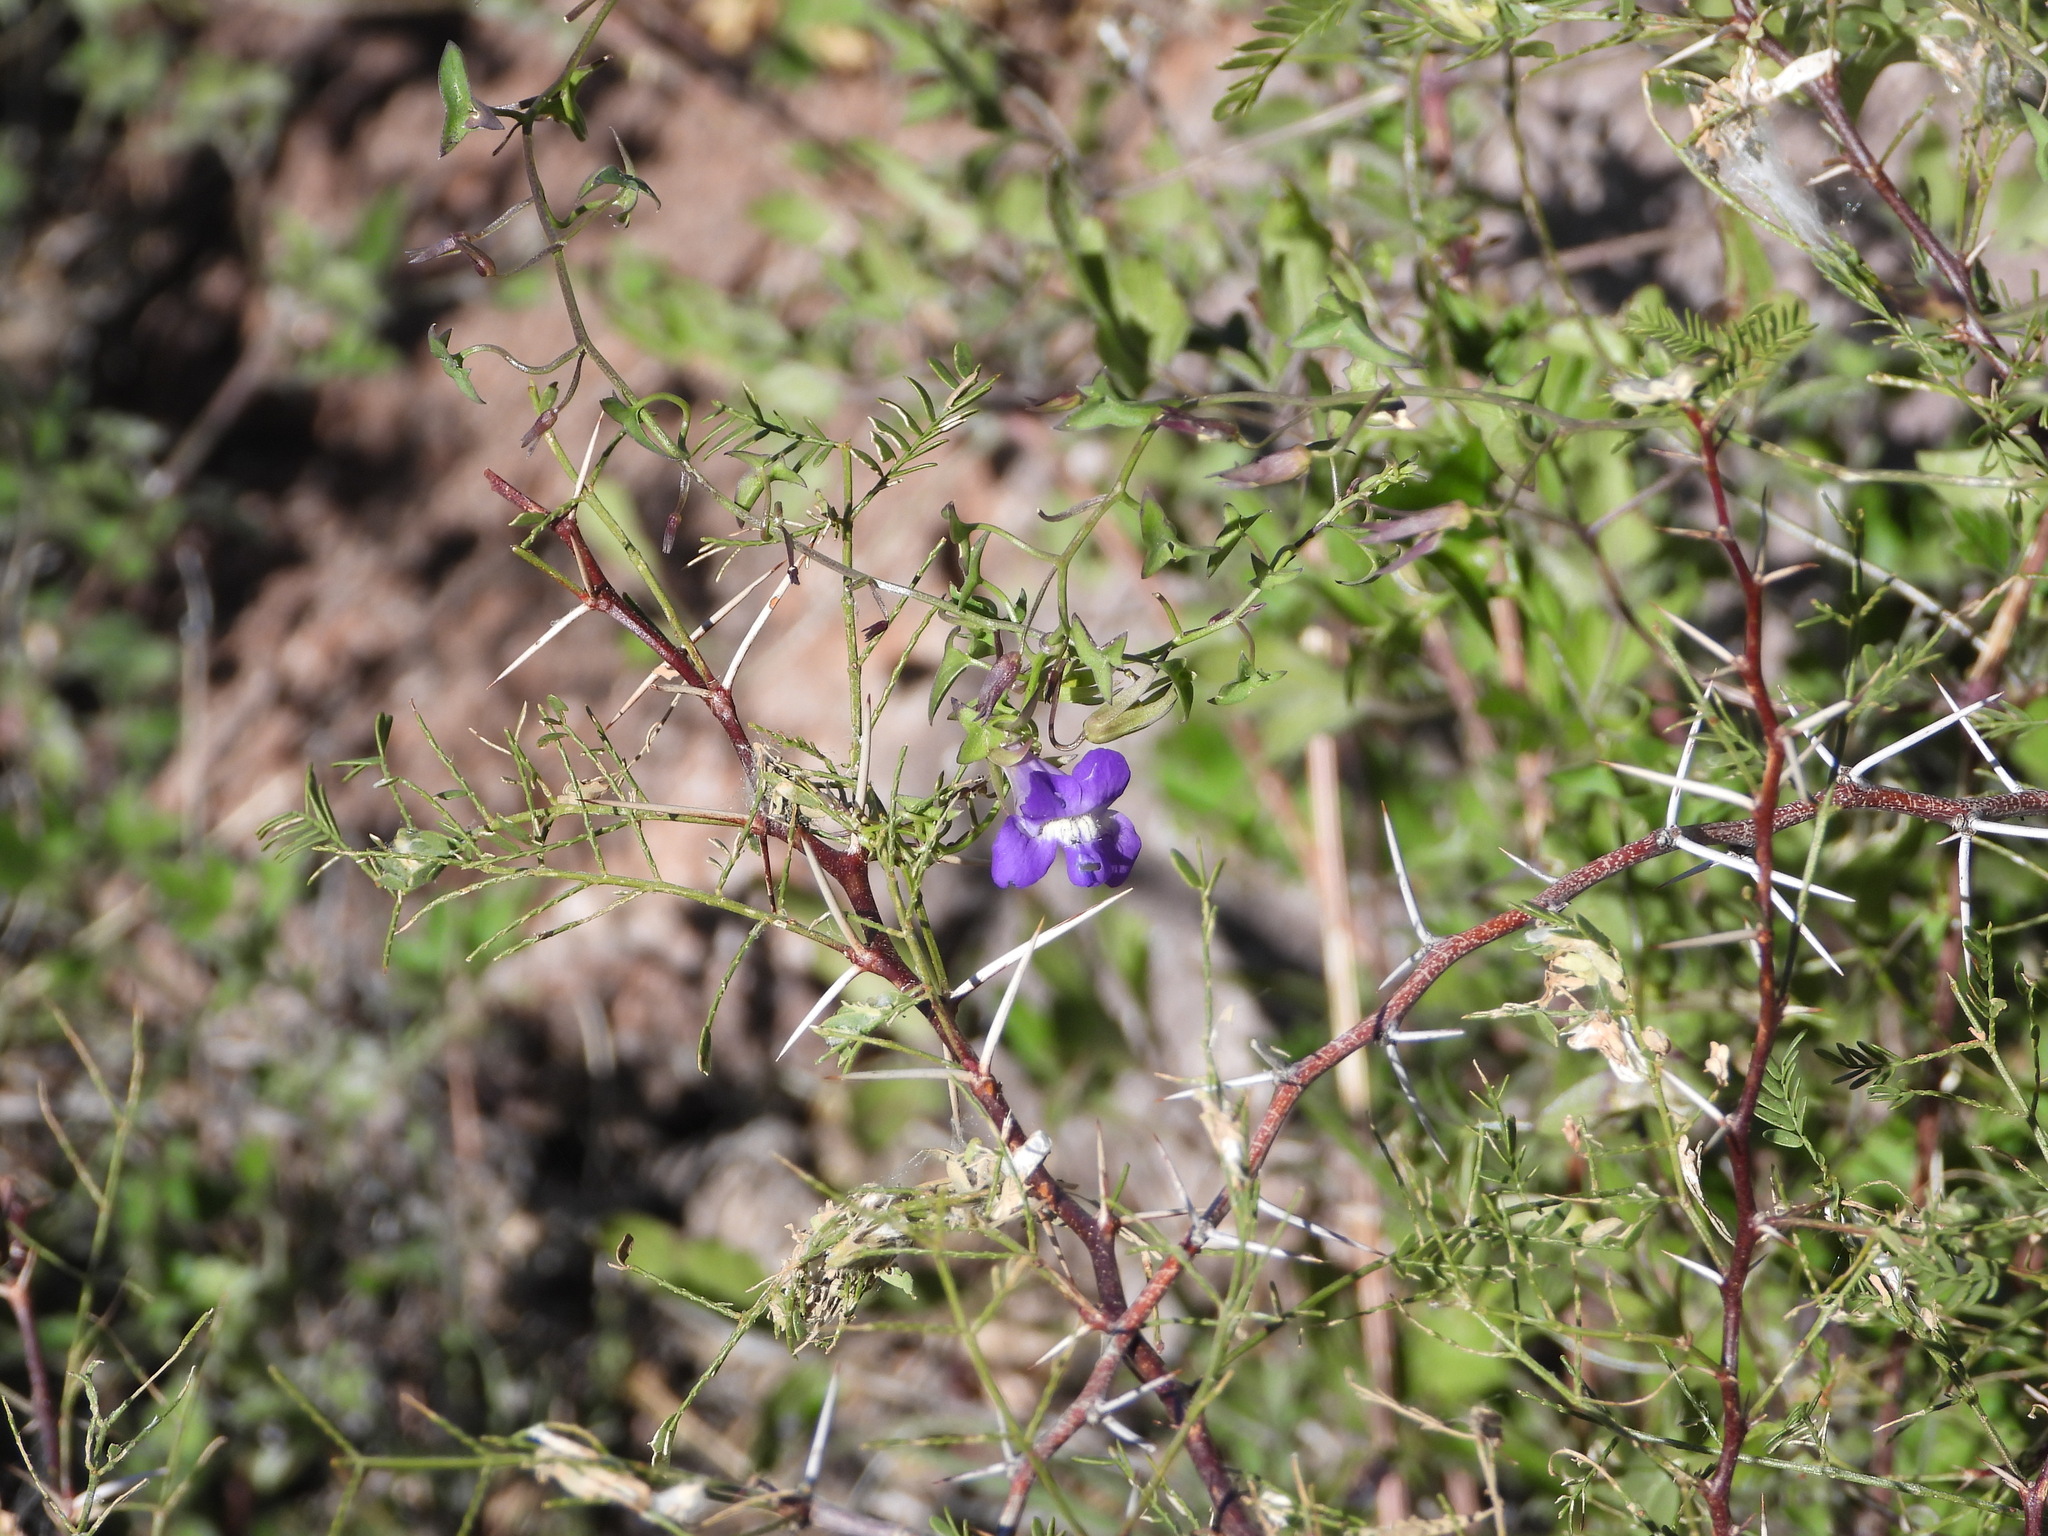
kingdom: Plantae
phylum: Tracheophyta
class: Magnoliopsida
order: Lamiales
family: Plantaginaceae
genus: Maurandella
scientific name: Maurandella antirrhiniflora
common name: Violet twining-snapdragon
